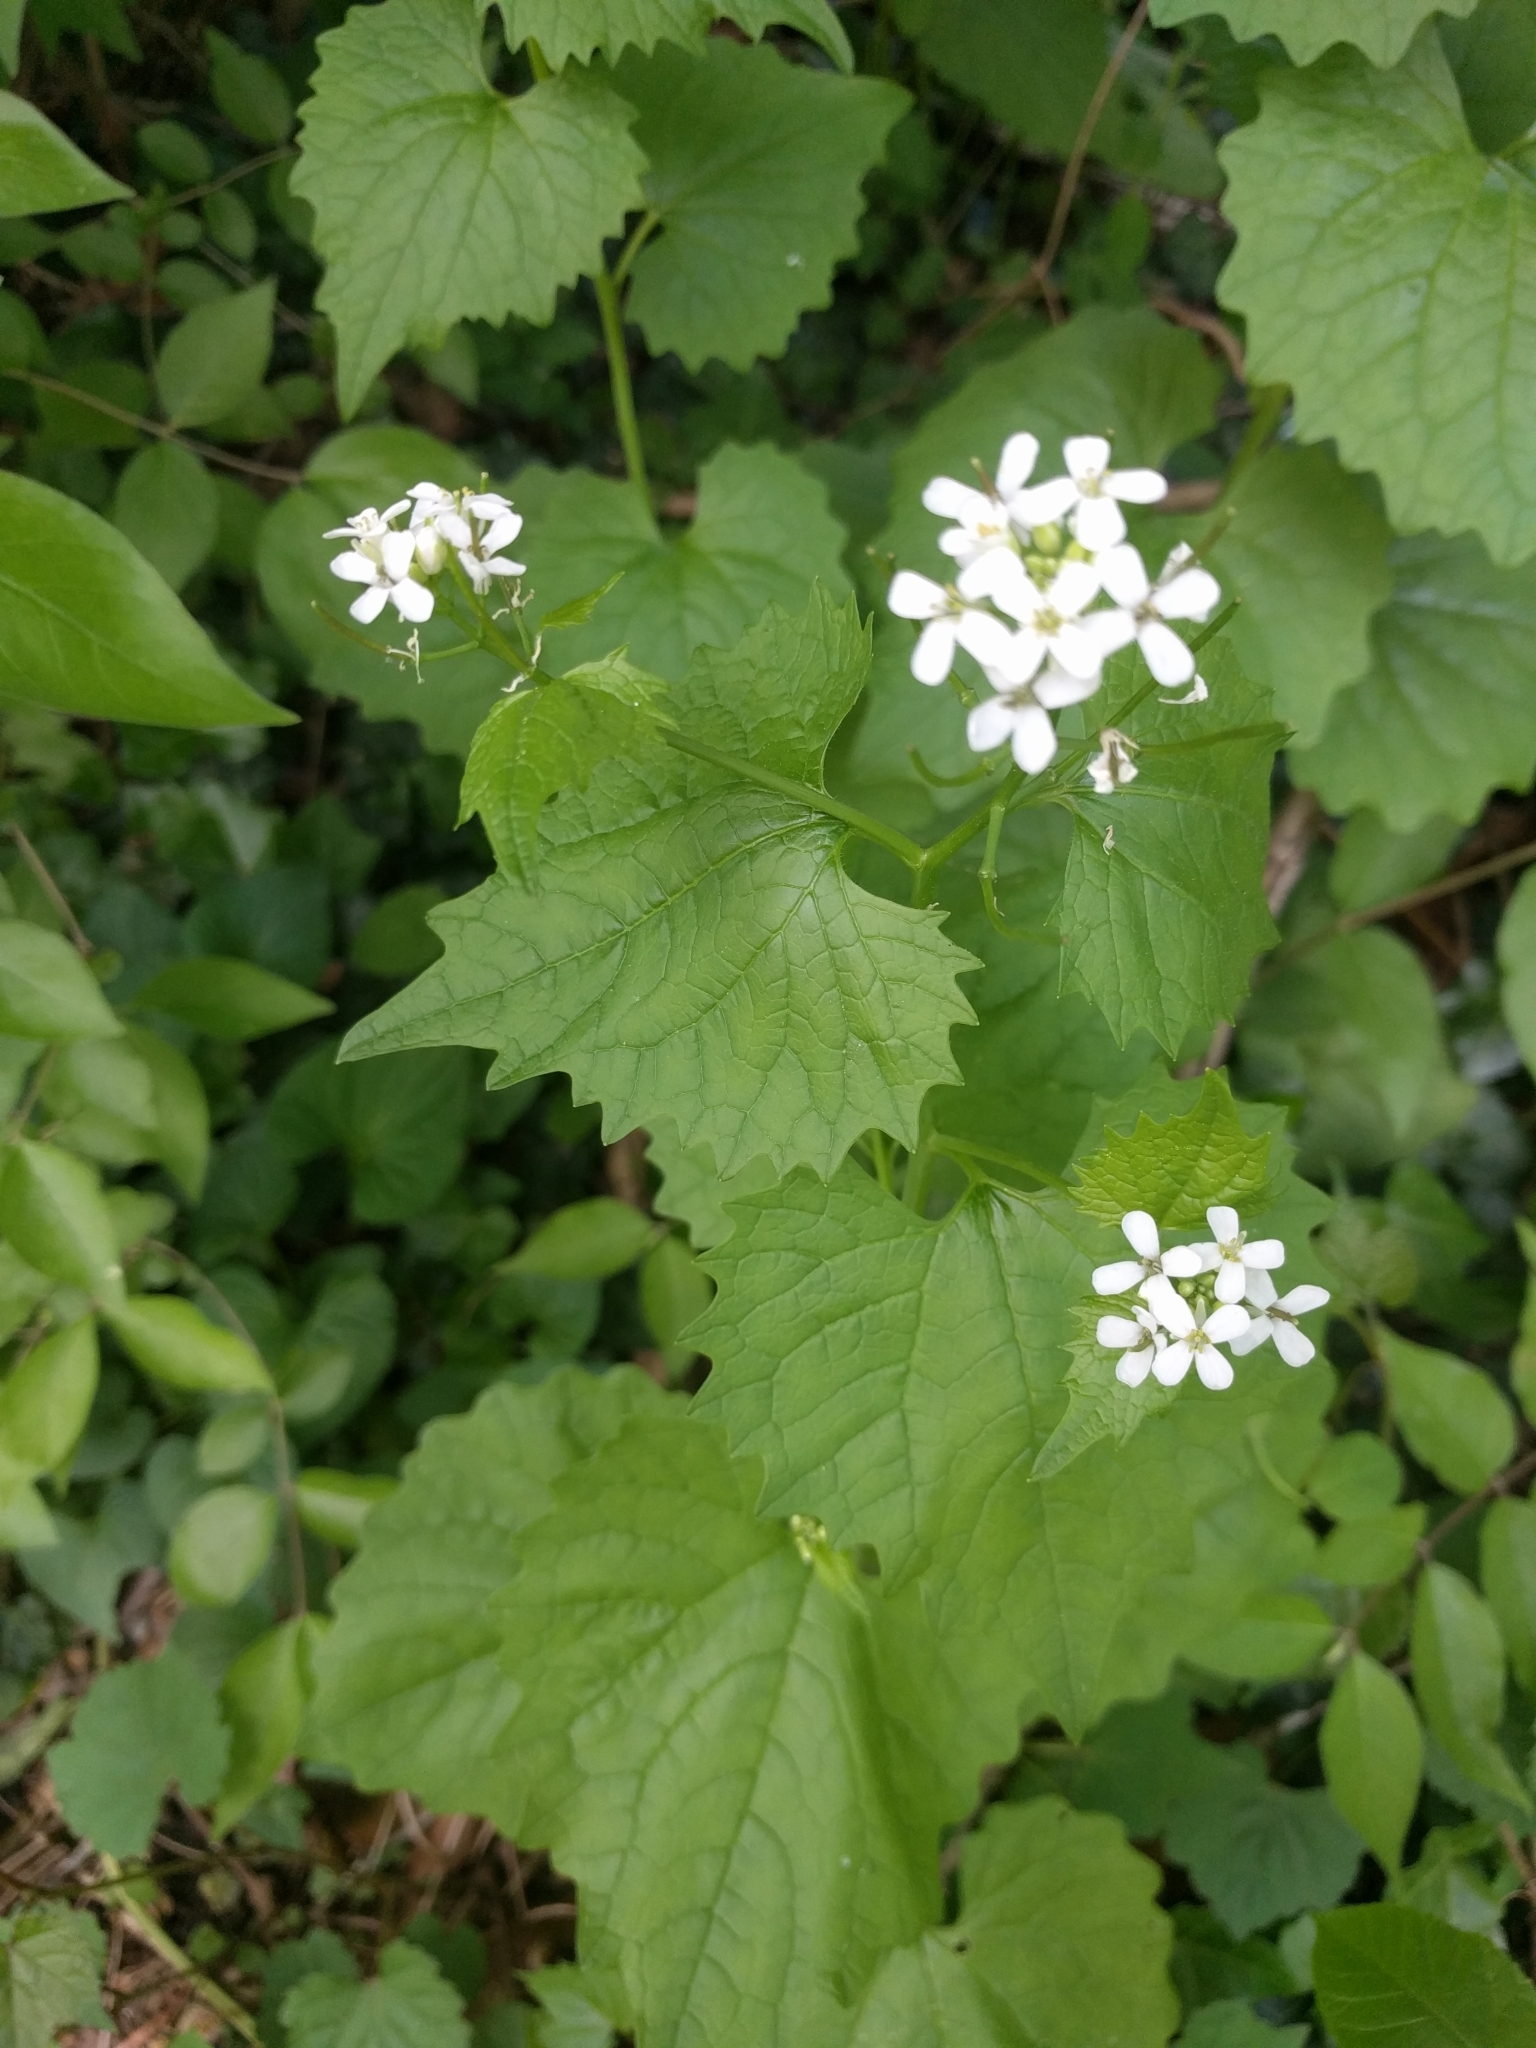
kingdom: Plantae
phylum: Tracheophyta
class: Magnoliopsida
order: Brassicales
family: Brassicaceae
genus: Alliaria
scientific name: Alliaria petiolata
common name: Garlic mustard
